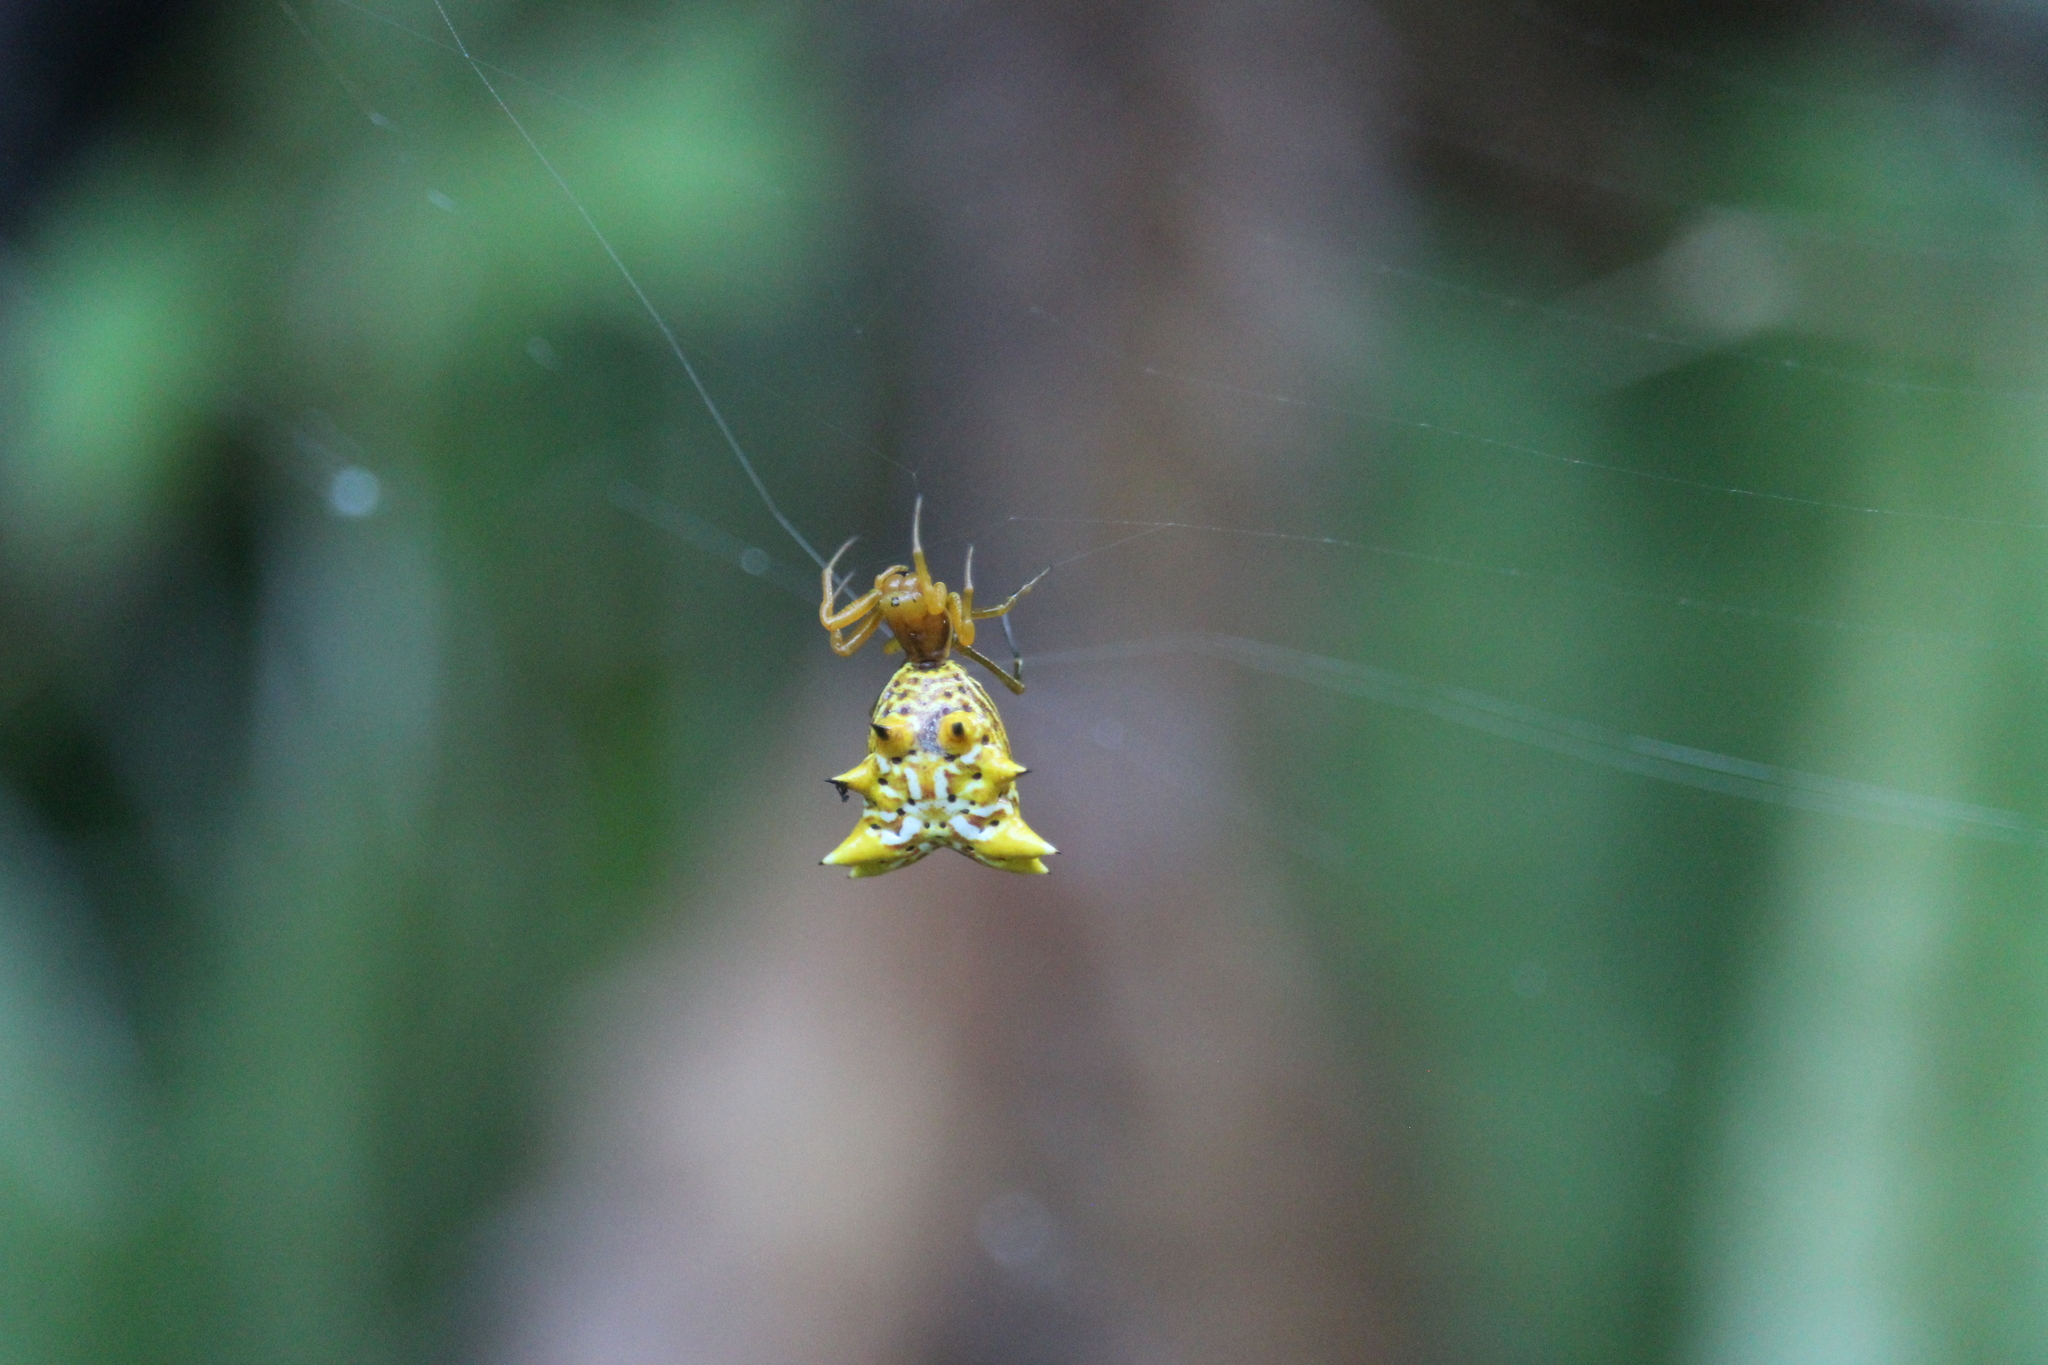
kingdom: Animalia
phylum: Arthropoda
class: Arachnida
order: Araneae
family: Araneidae
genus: Micrathena
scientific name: Micrathena gracilis
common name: Orb weavers
